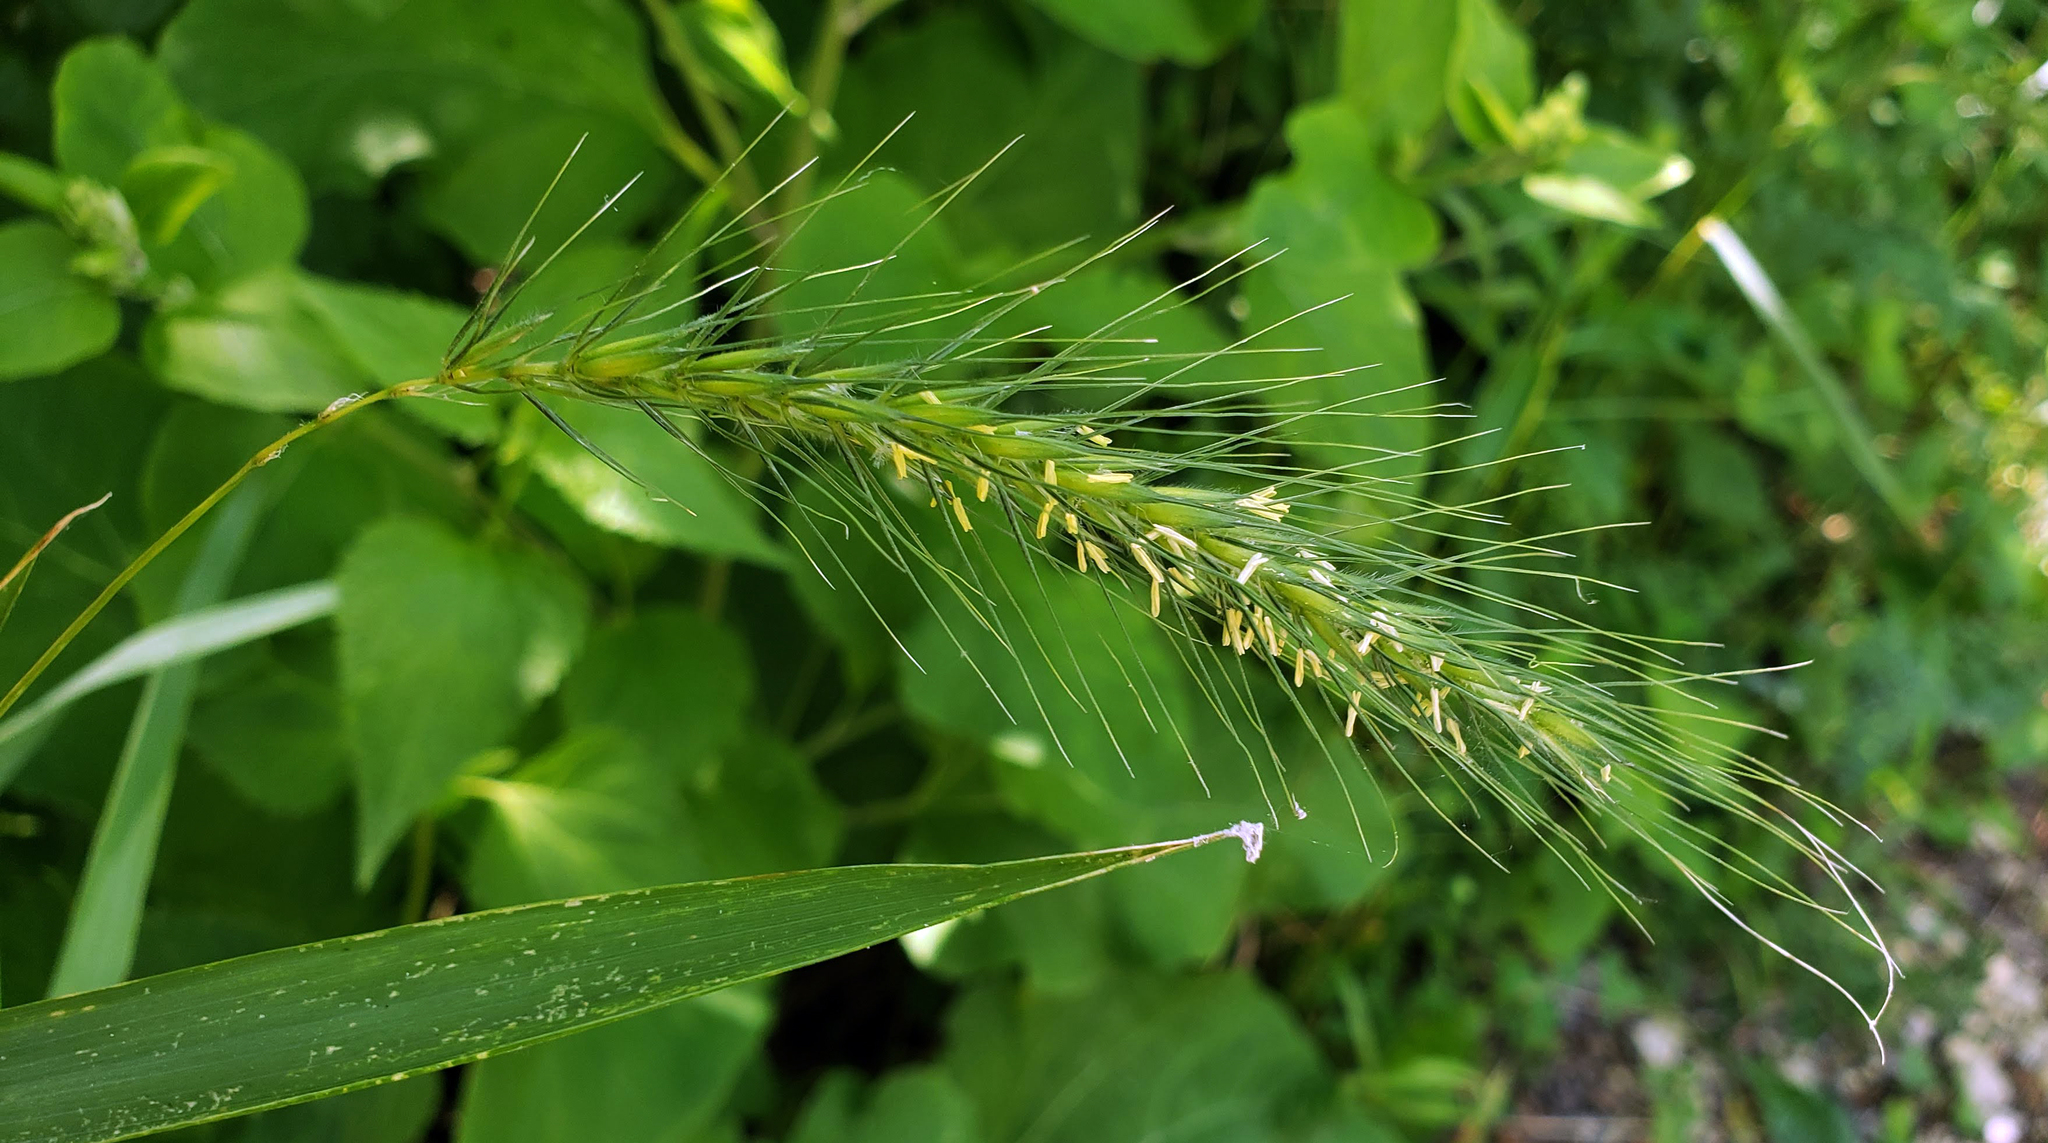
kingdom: Plantae
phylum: Tracheophyta
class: Liliopsida
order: Poales
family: Poaceae
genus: Elymus
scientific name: Elymus villosus
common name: Downy wild rye
